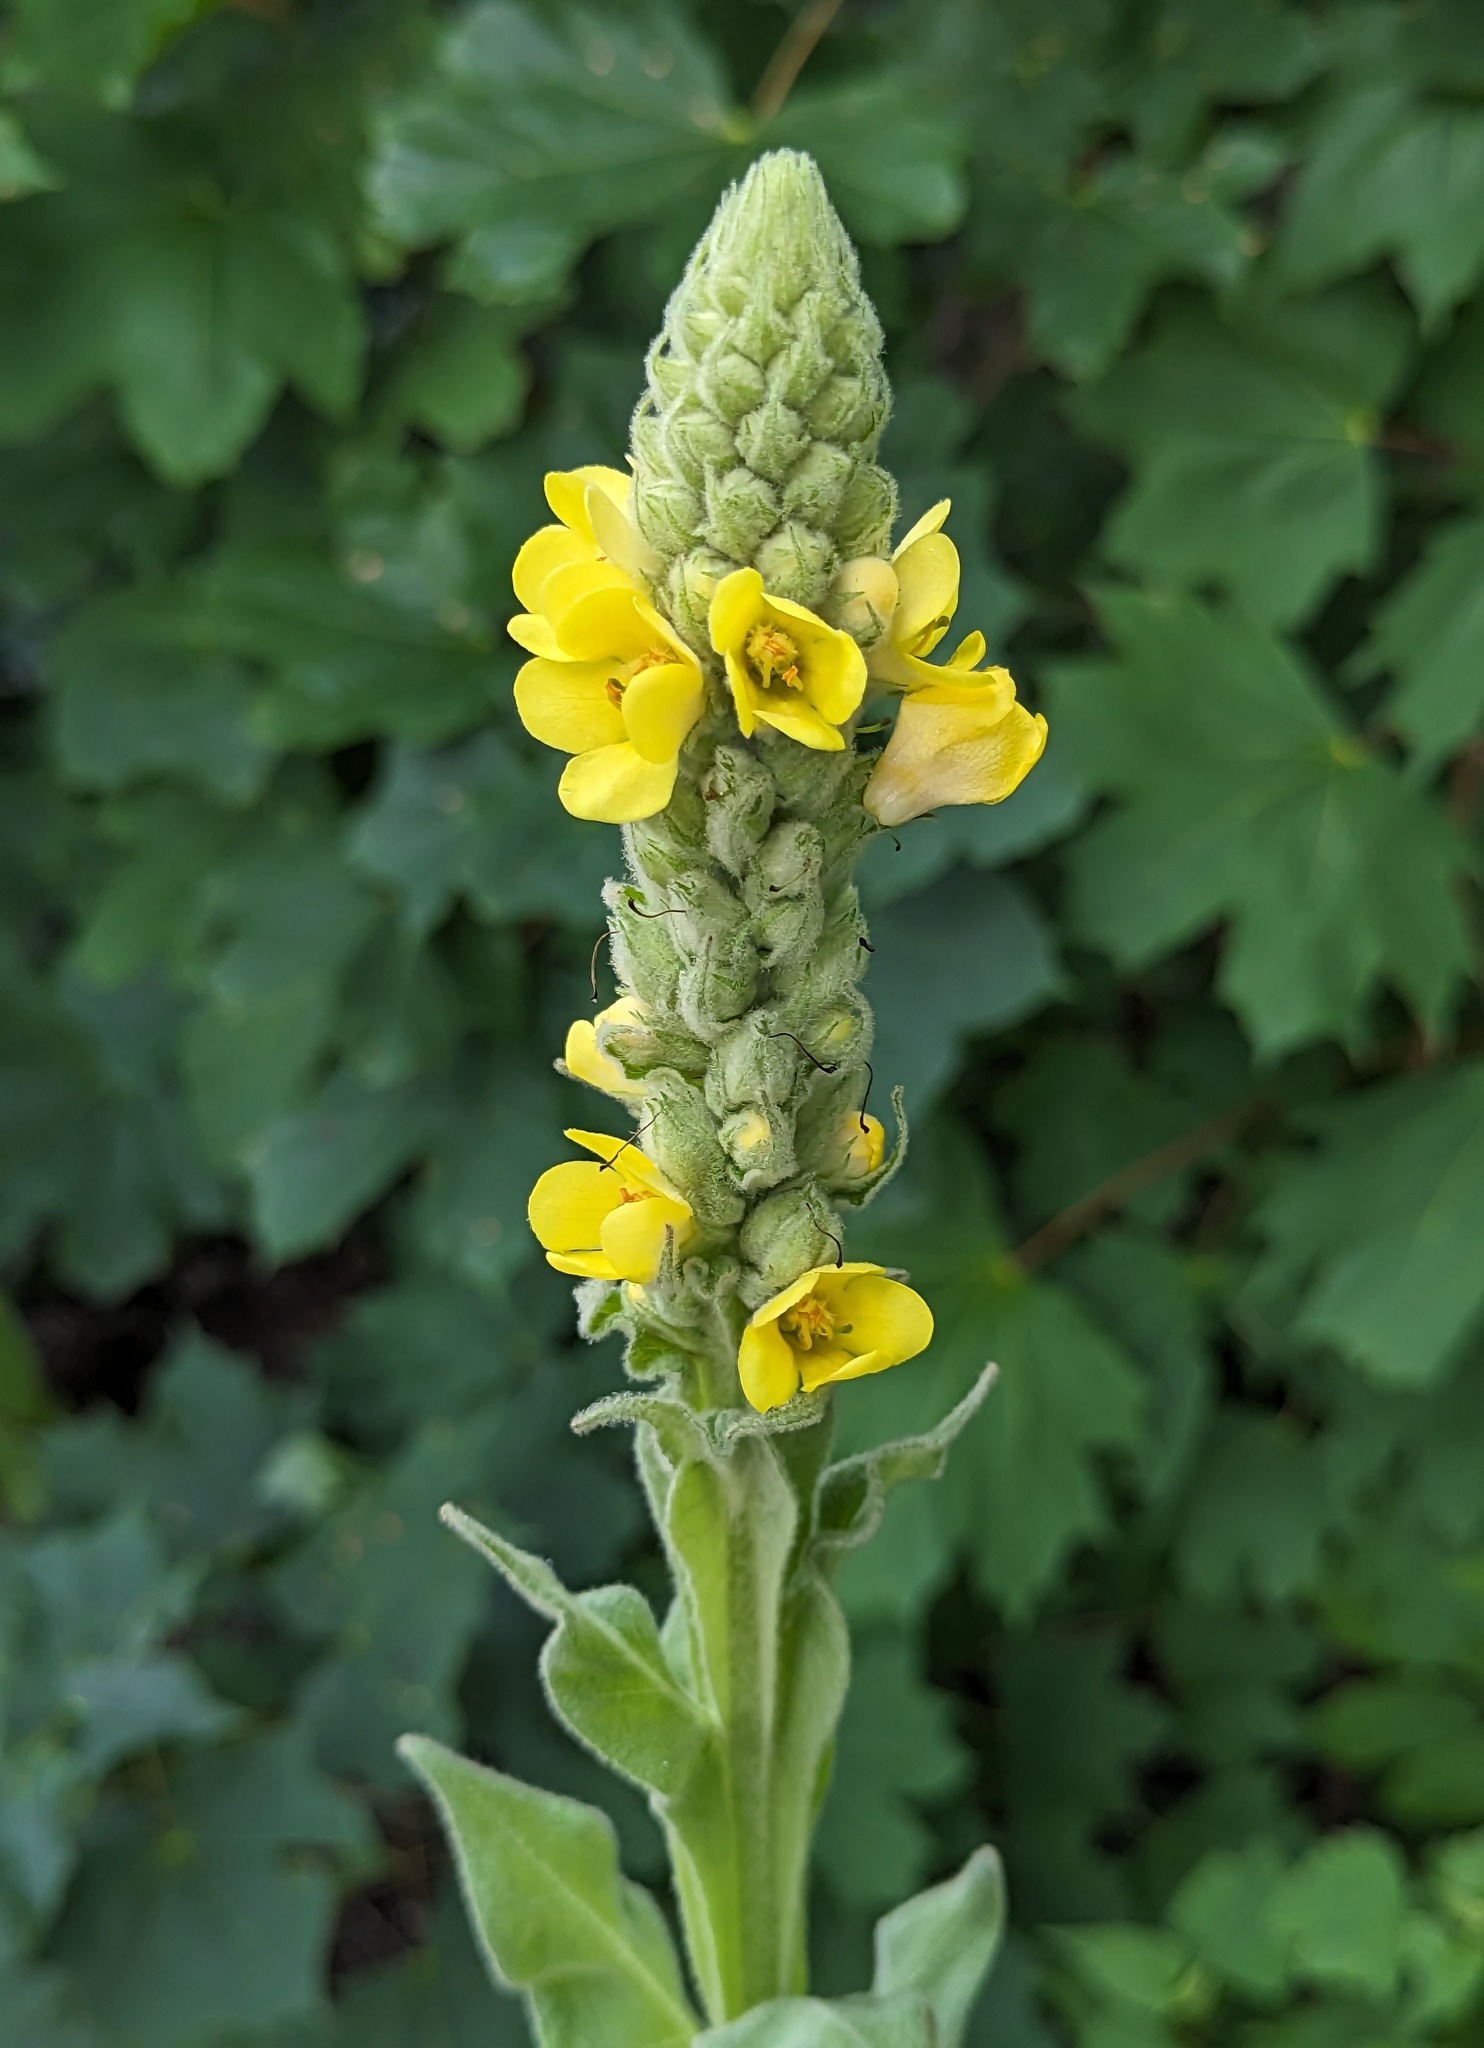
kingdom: Plantae
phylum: Tracheophyta
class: Magnoliopsida
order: Lamiales
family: Scrophulariaceae
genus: Verbascum
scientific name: Verbascum thapsus
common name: Common mullein
